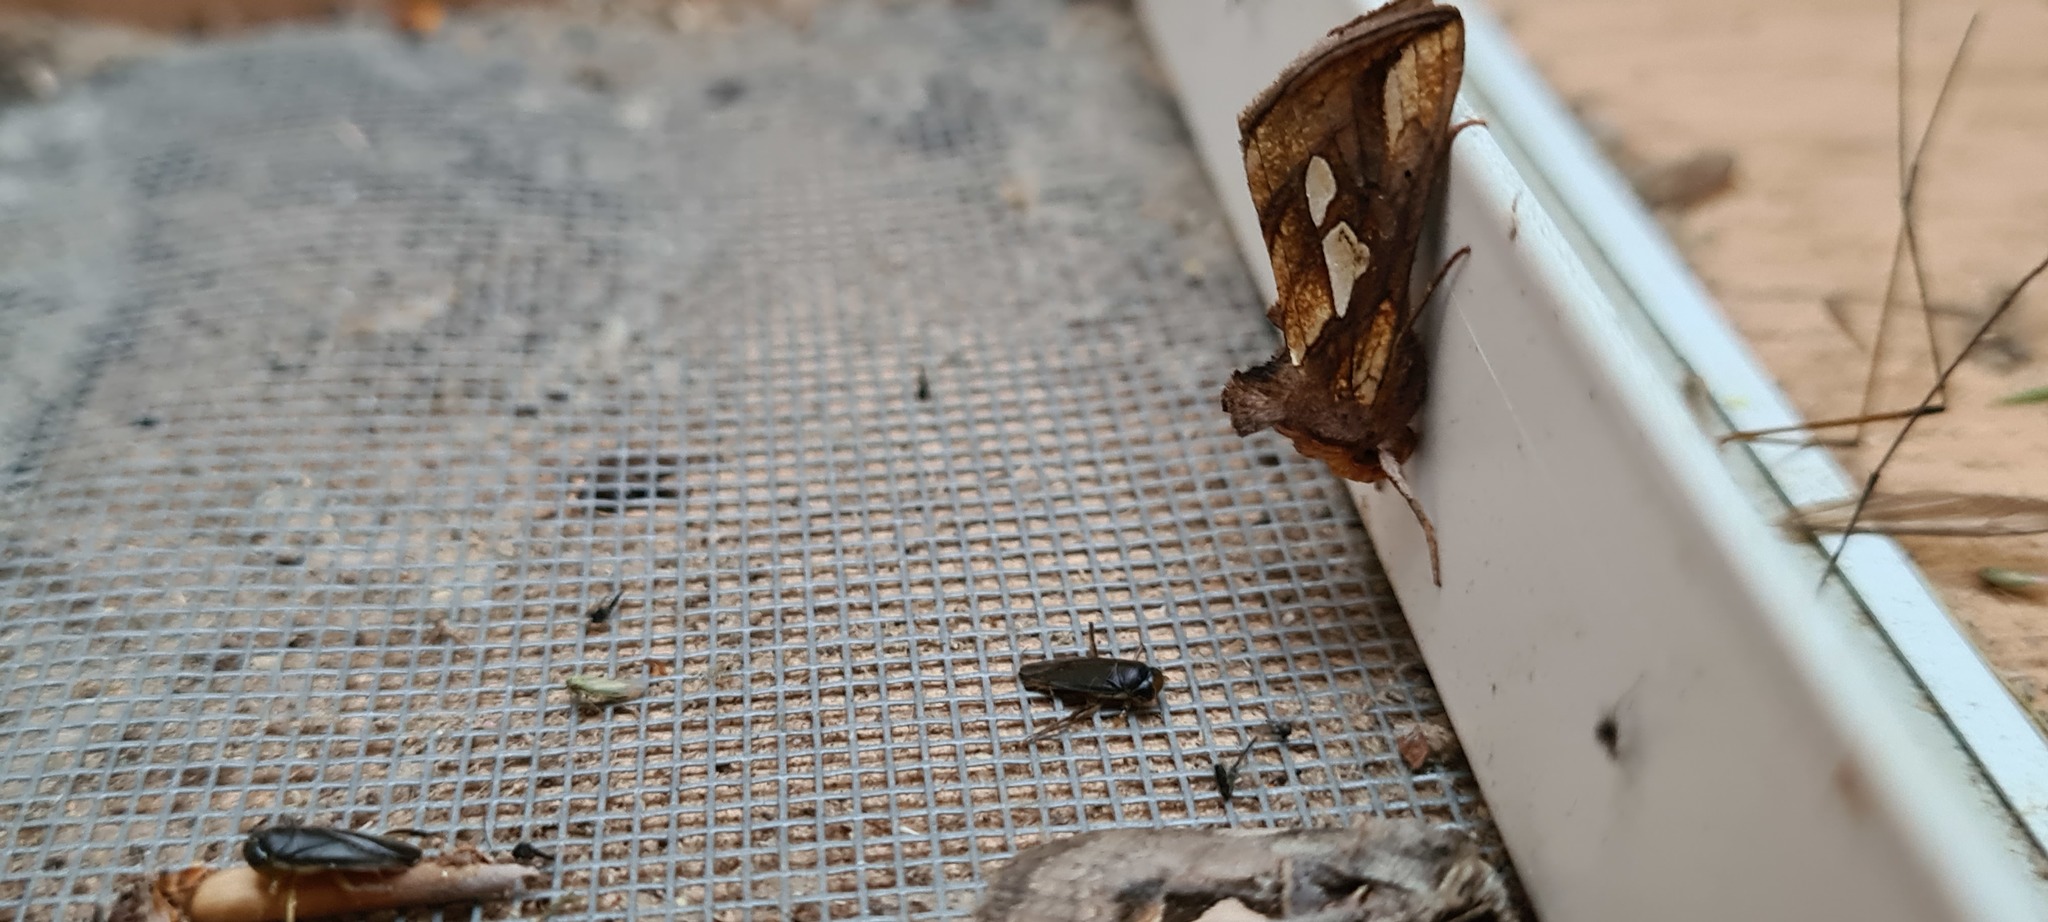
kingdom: Animalia
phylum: Arthropoda
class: Insecta
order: Lepidoptera
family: Noctuidae
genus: Plusia
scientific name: Plusia festucae
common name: Gold spot
